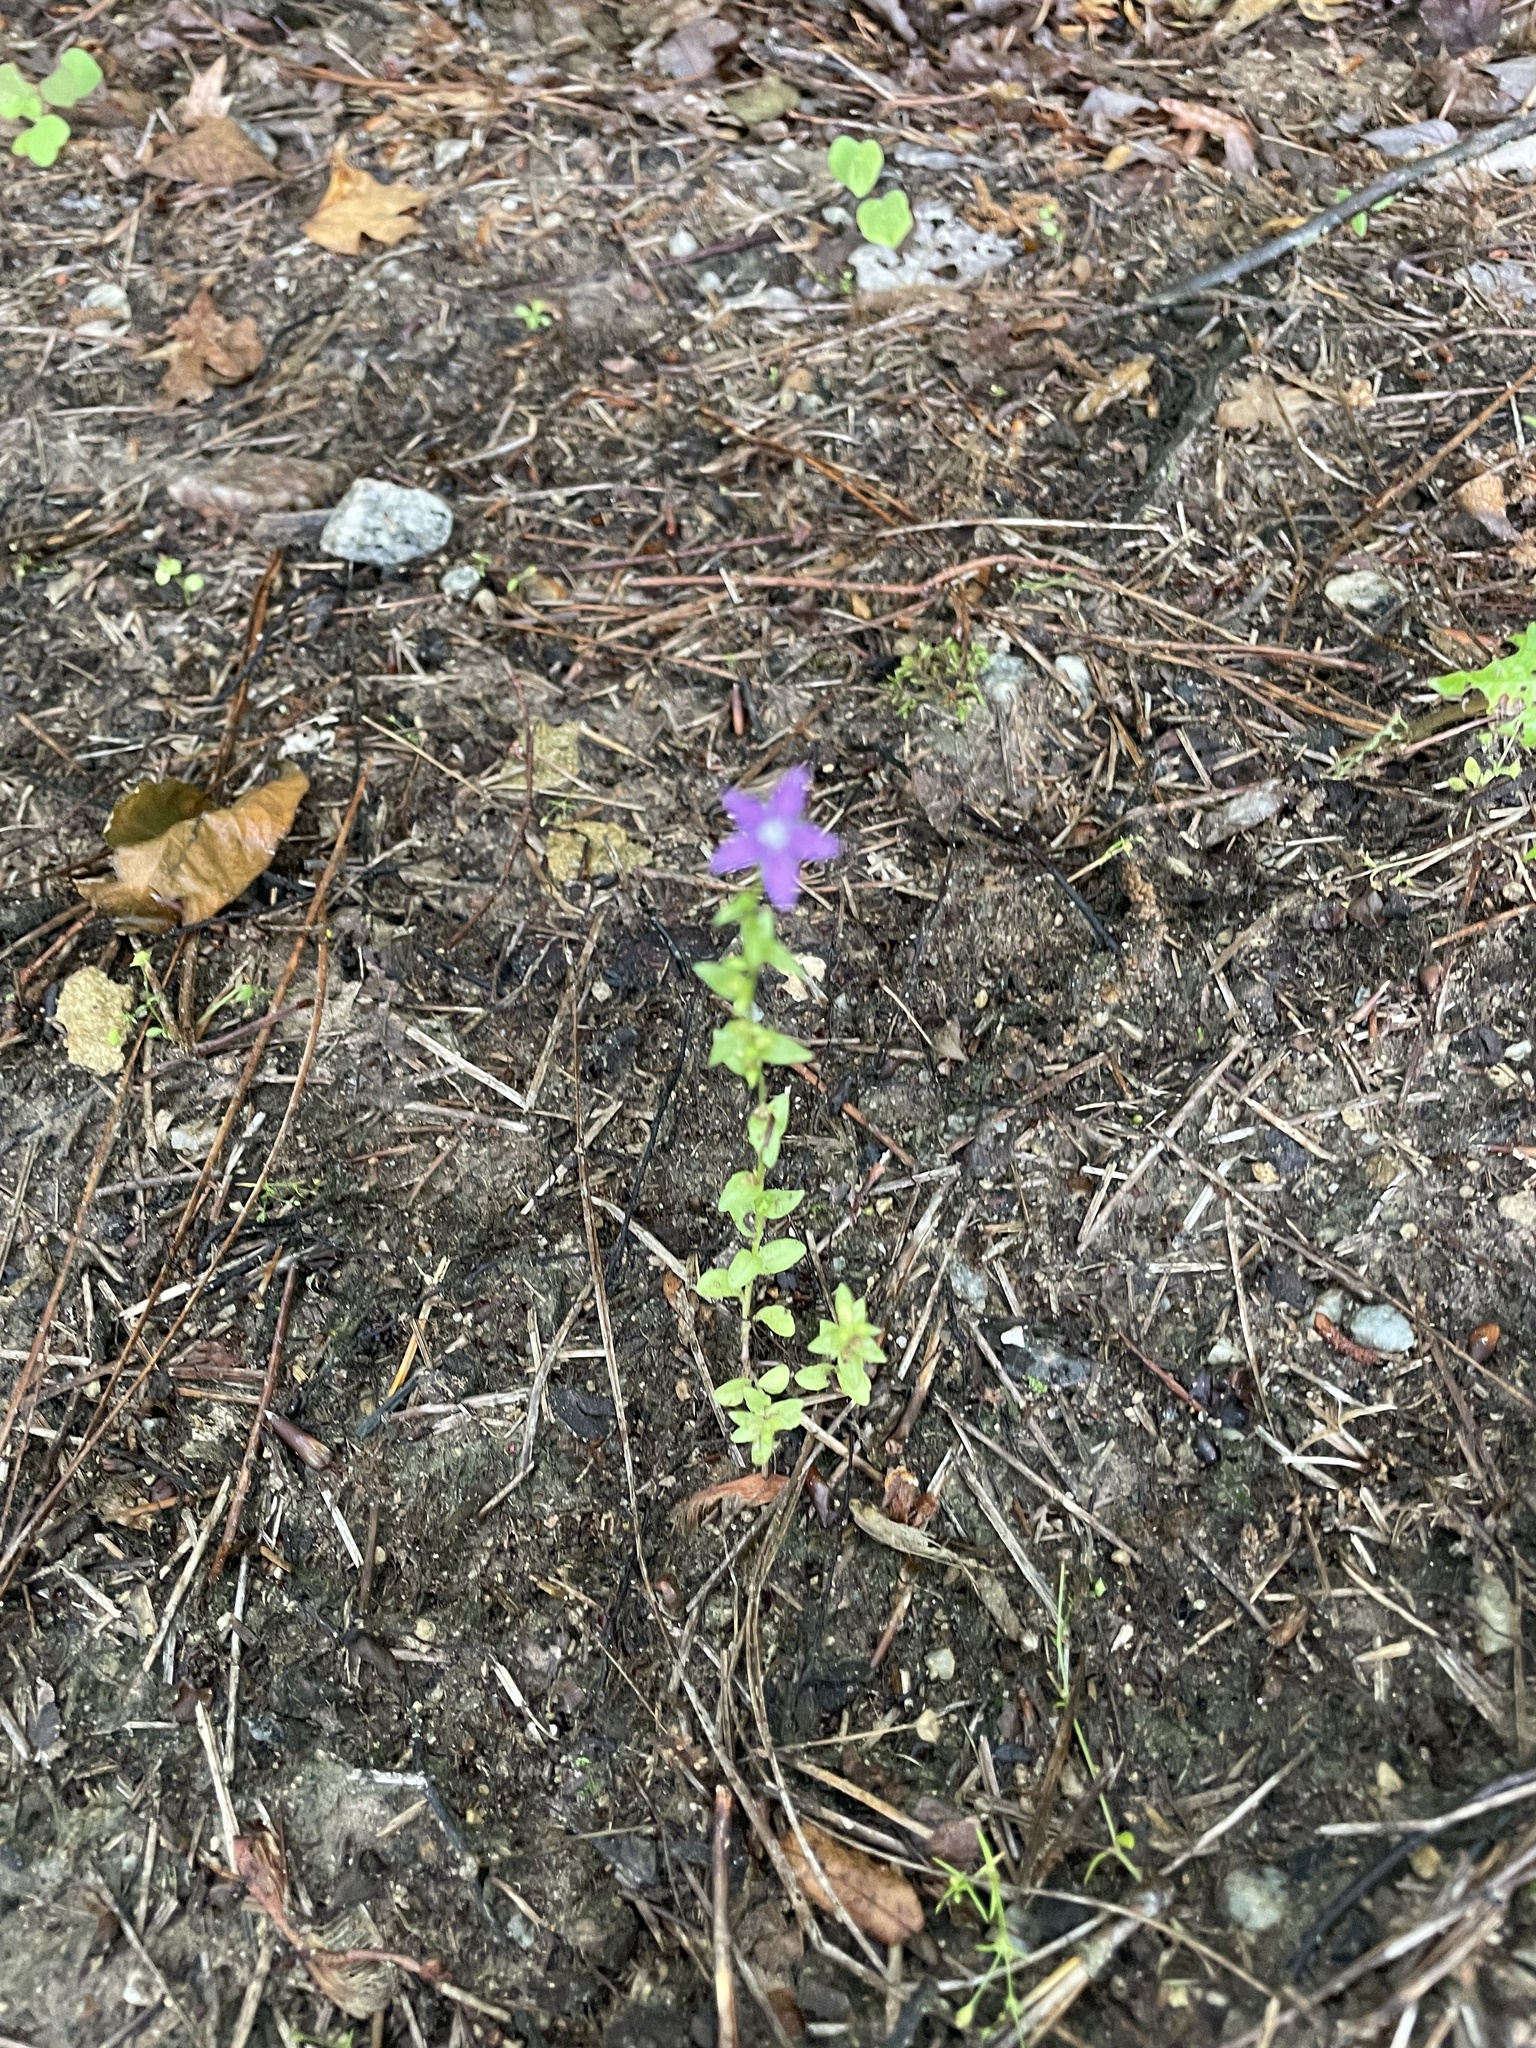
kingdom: Plantae
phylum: Tracheophyta
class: Magnoliopsida
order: Asterales
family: Campanulaceae
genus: Triodanis
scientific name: Triodanis biflora
